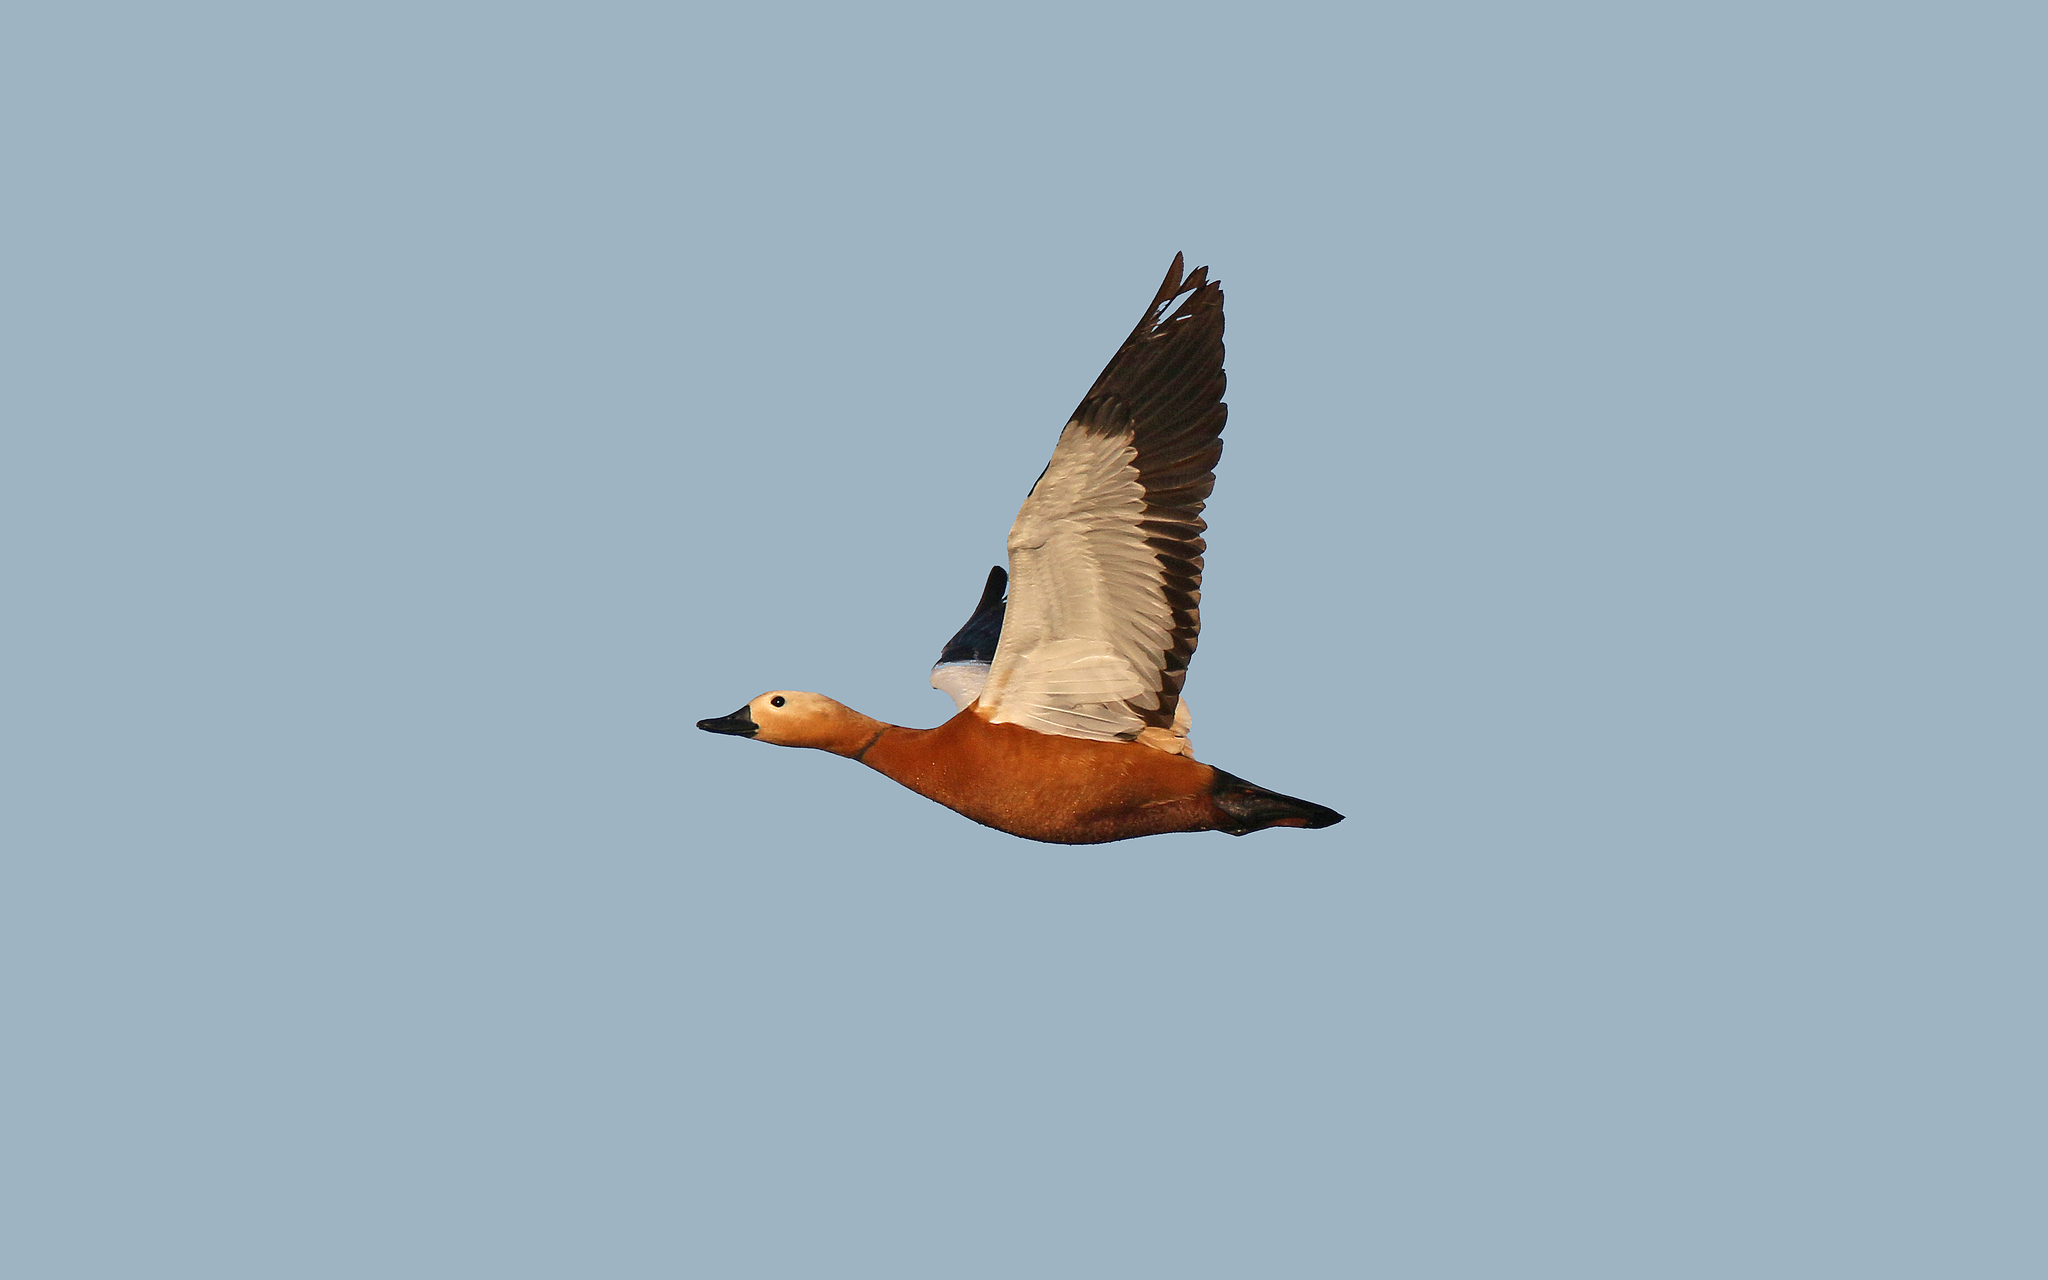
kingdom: Animalia
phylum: Chordata
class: Aves
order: Anseriformes
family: Anatidae
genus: Tadorna
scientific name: Tadorna ferruginea
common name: Ruddy shelduck
